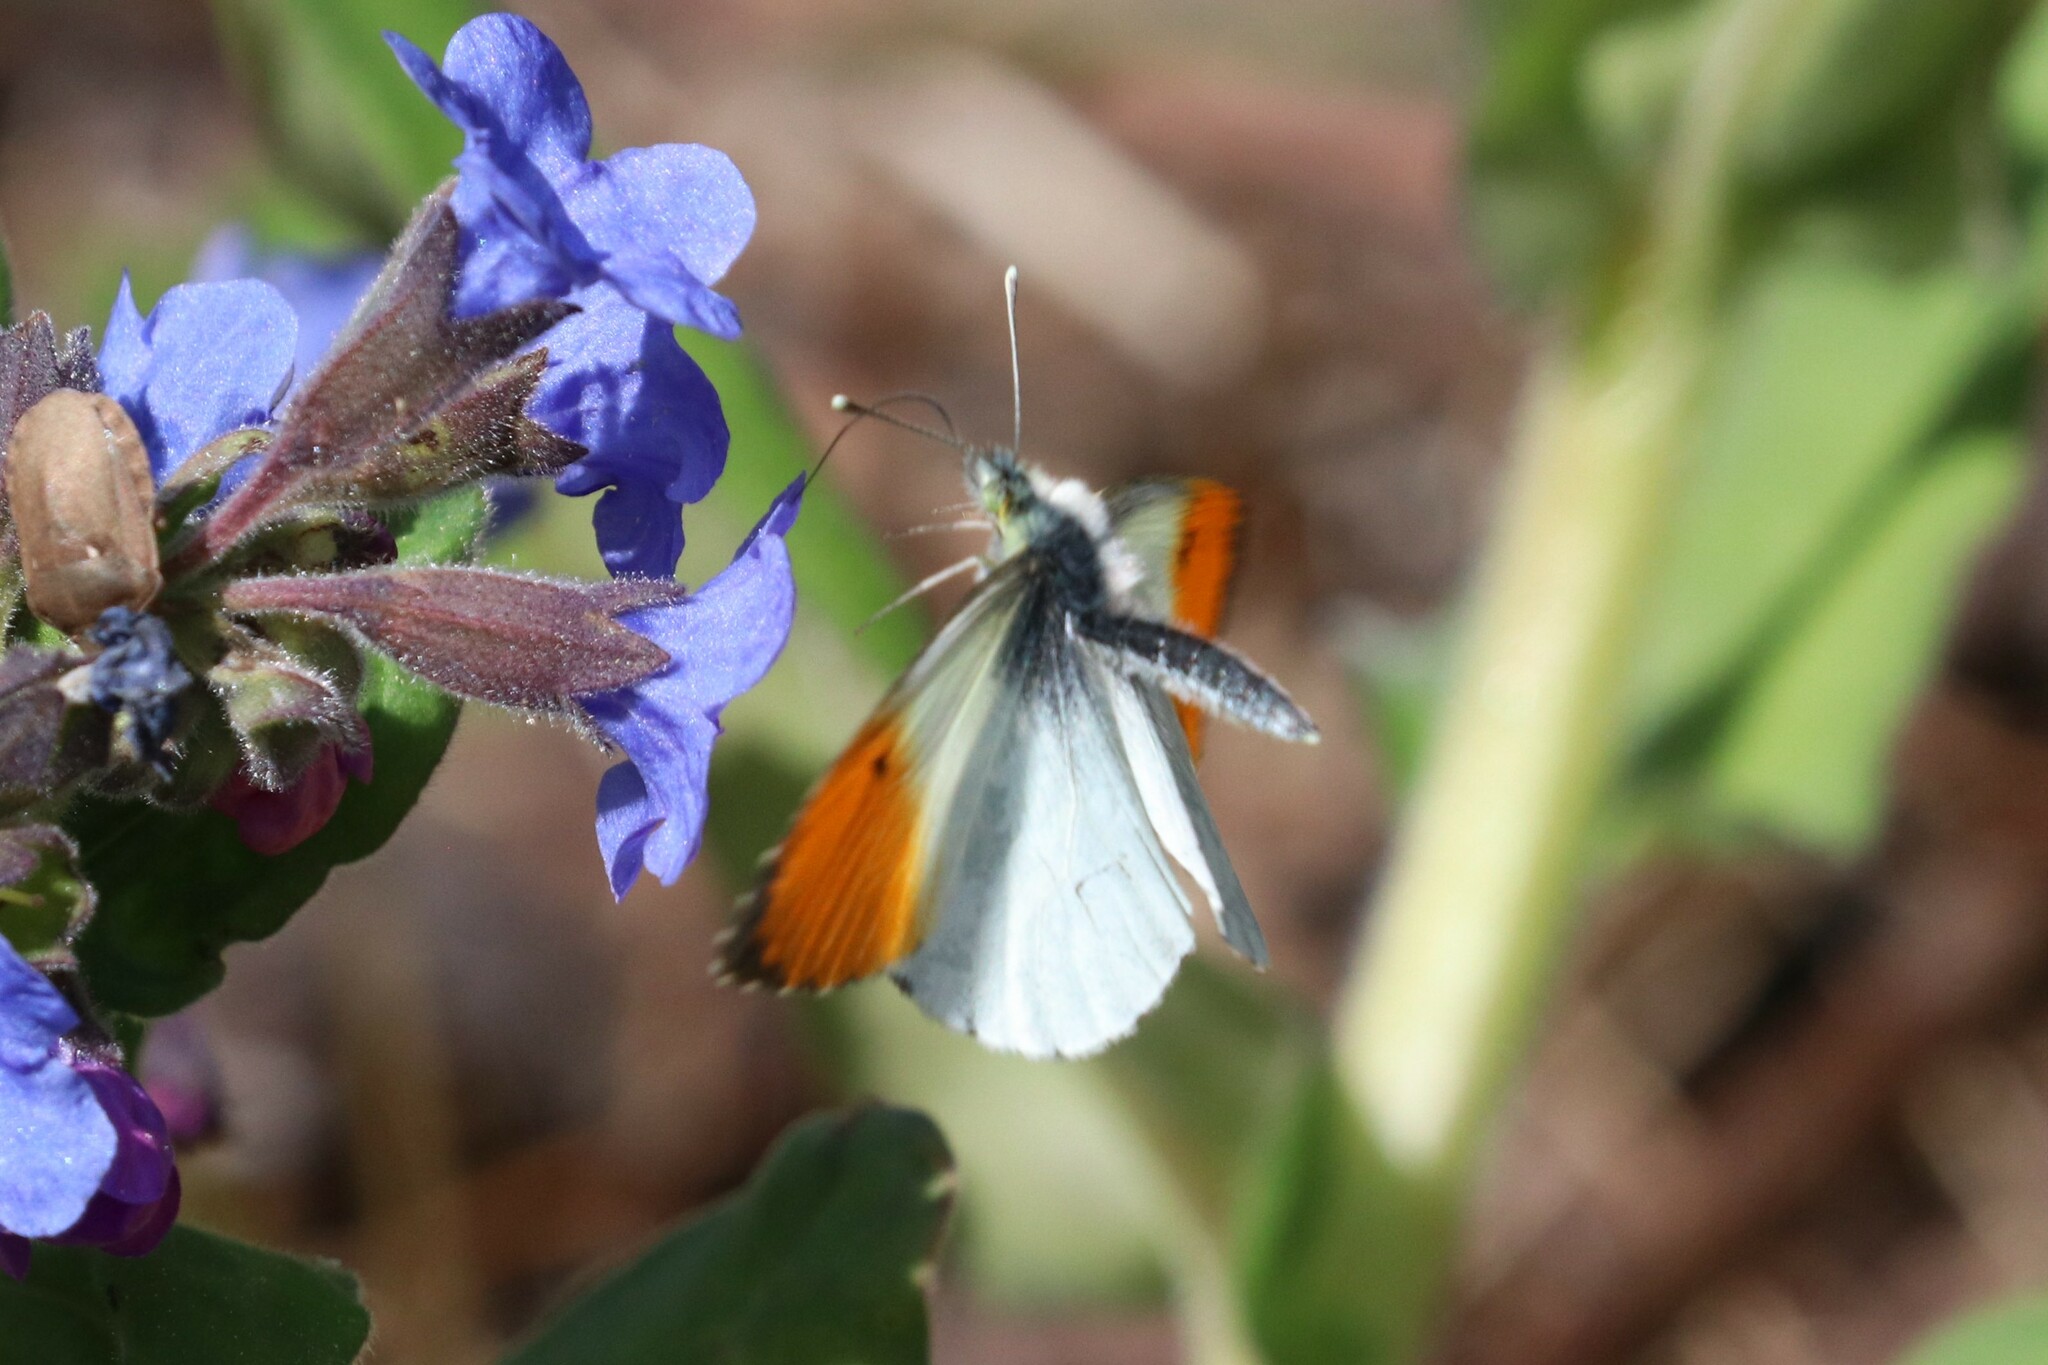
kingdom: Animalia
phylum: Arthropoda
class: Insecta
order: Lepidoptera
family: Pieridae
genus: Anthocharis
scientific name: Anthocharis cardamines
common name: Orange-tip
